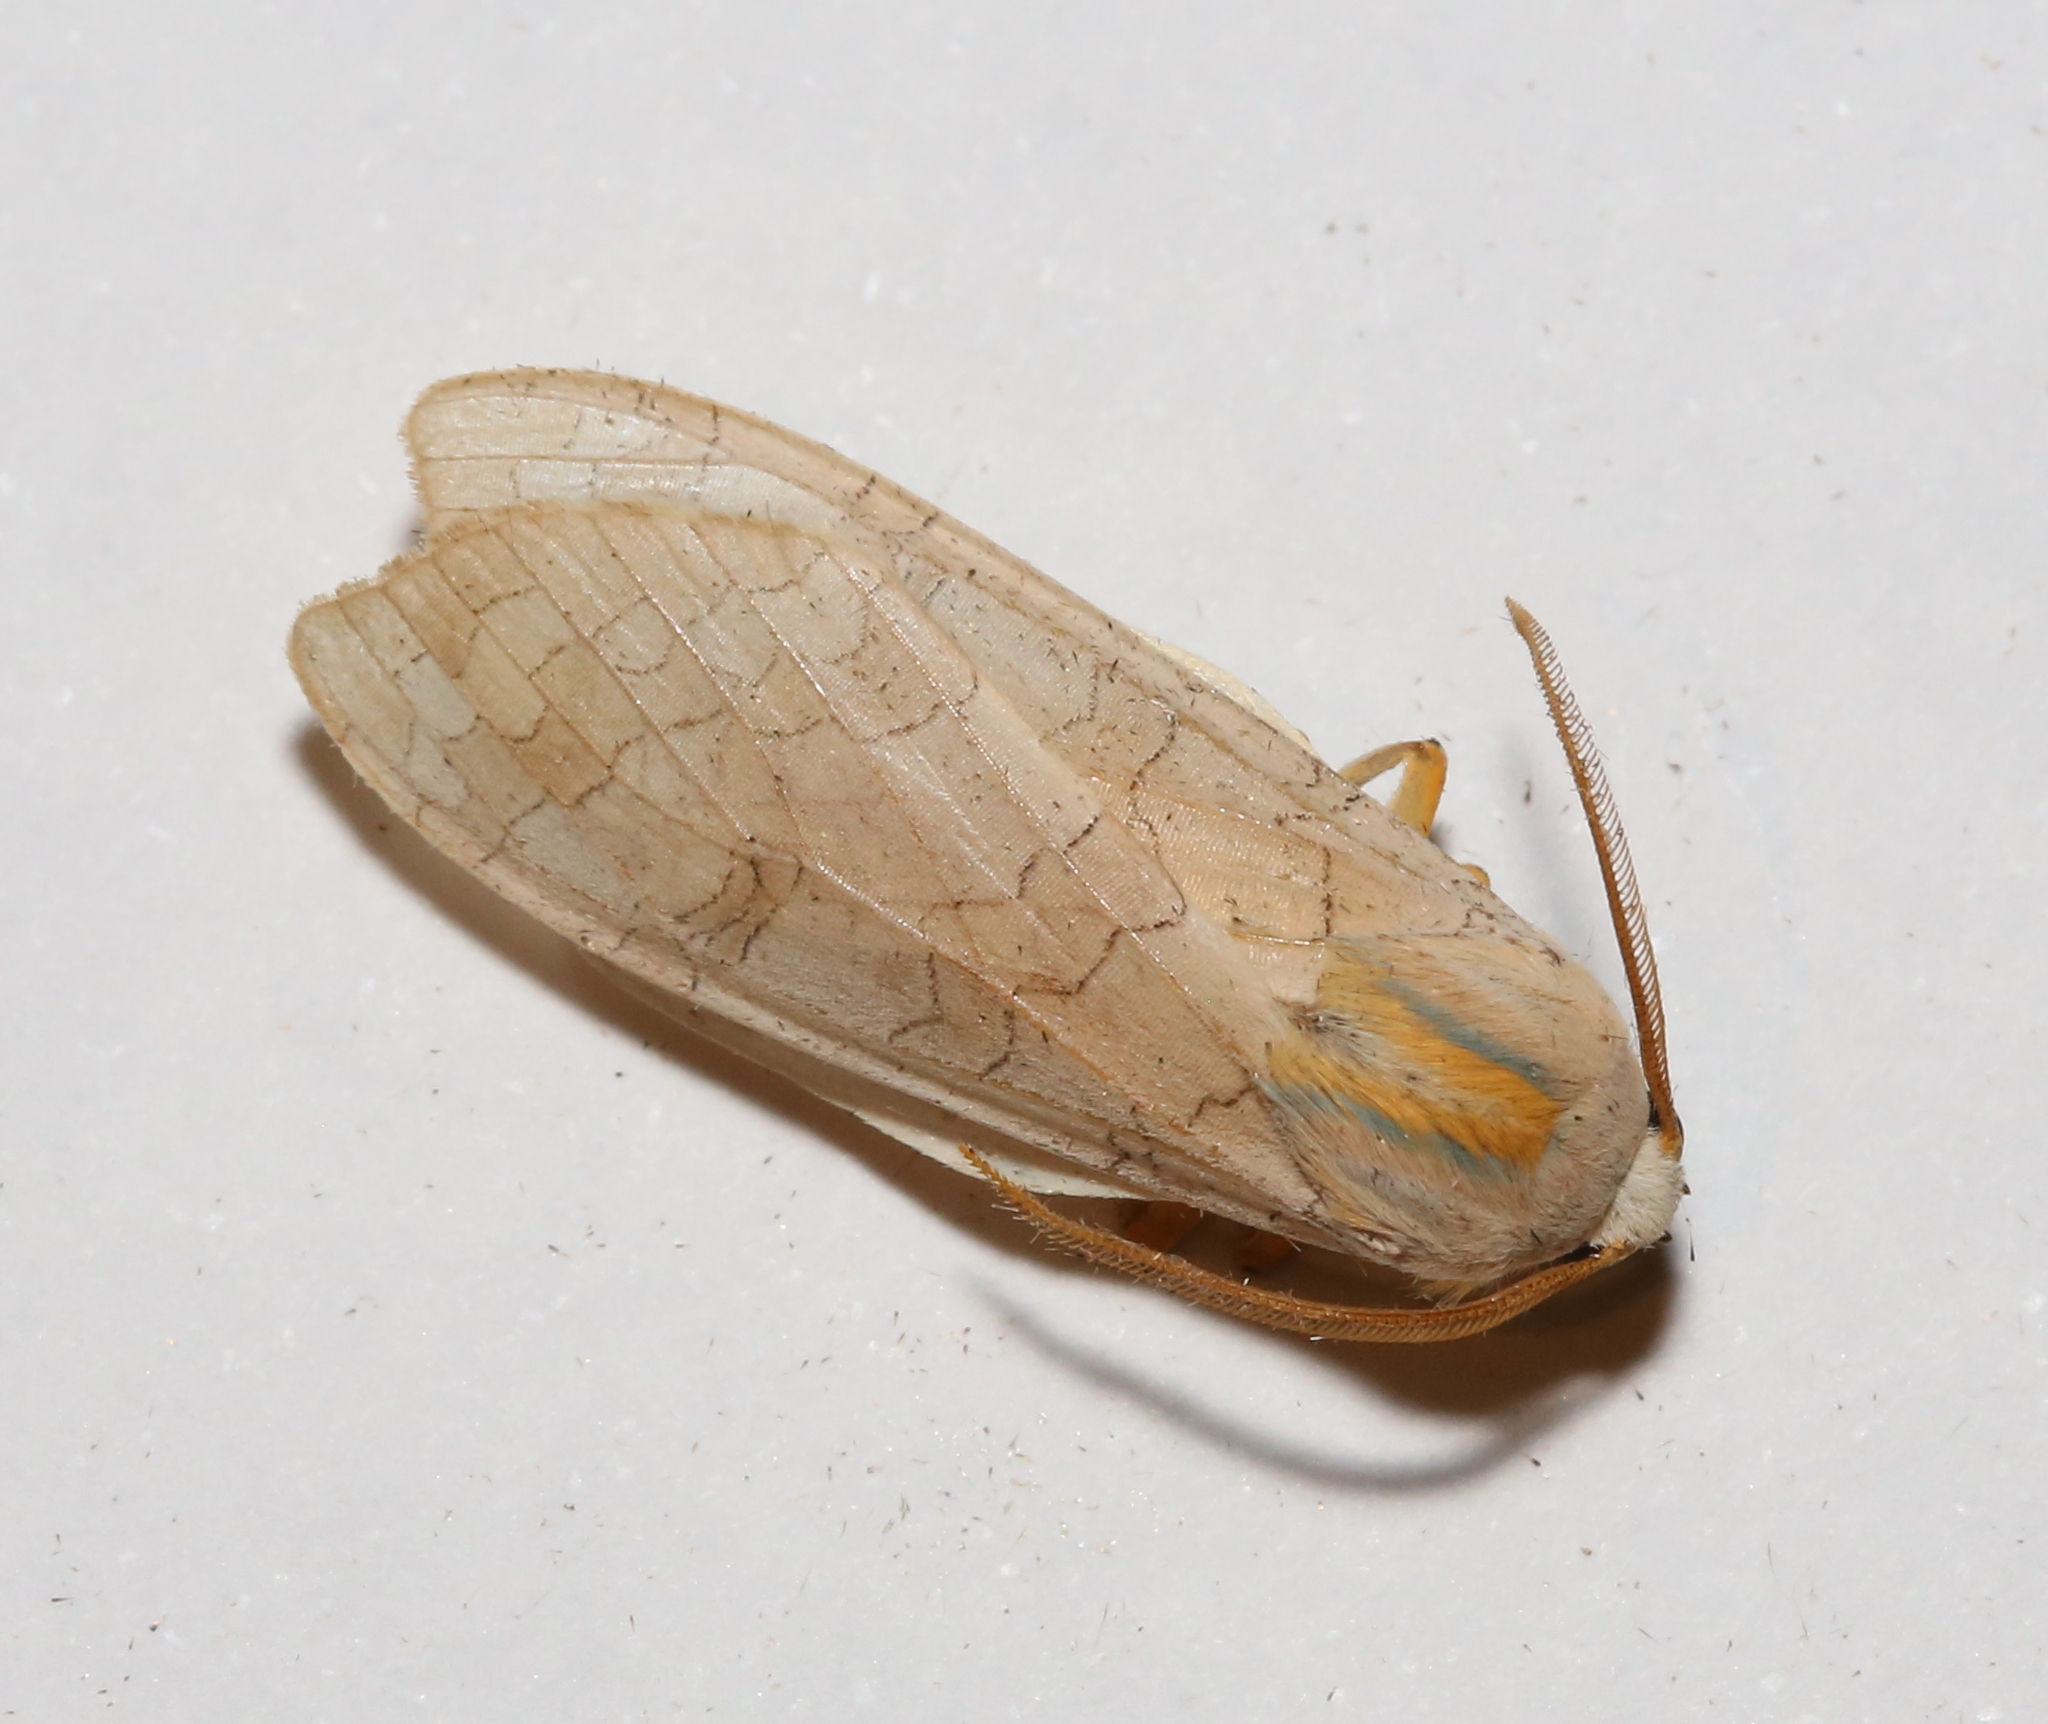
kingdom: Animalia
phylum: Arthropoda
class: Insecta
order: Lepidoptera
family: Erebidae
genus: Halysidota
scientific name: Halysidota
